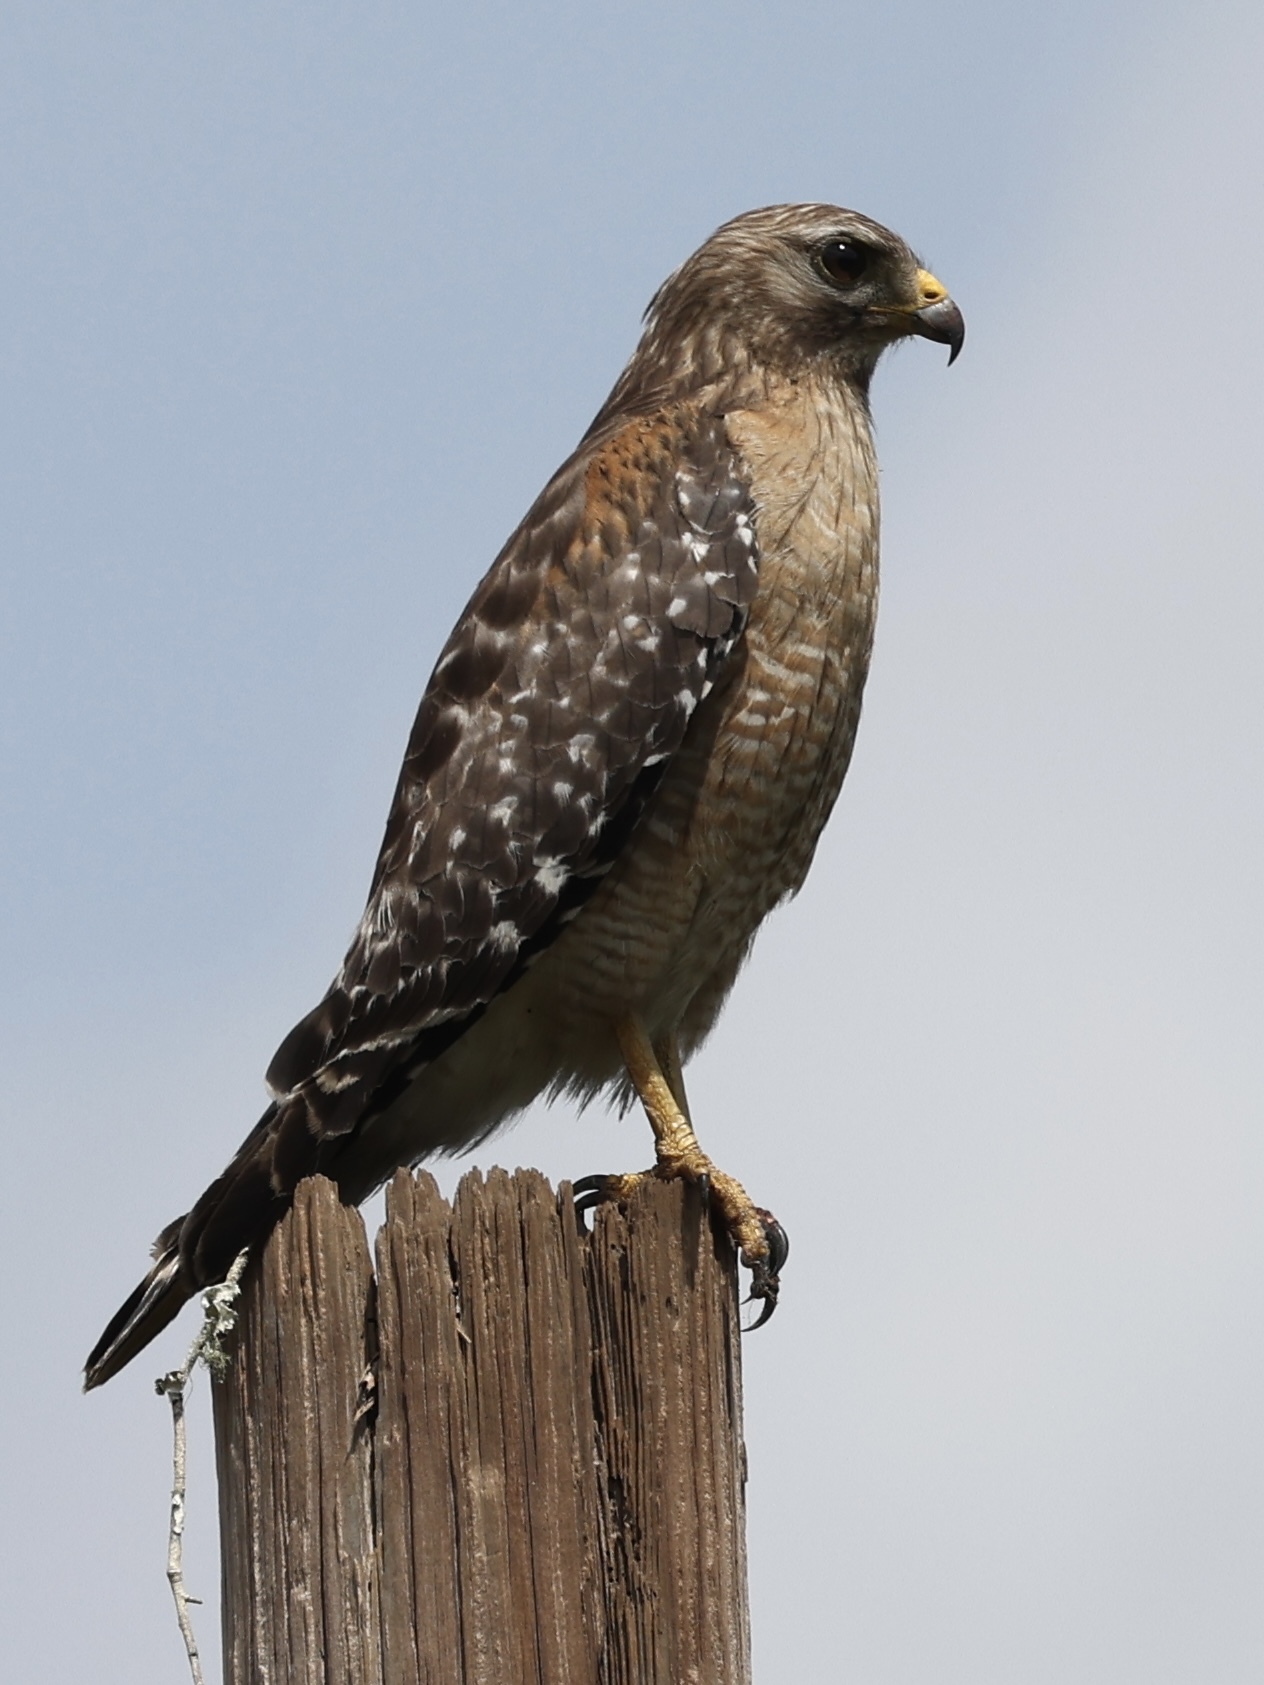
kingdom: Animalia
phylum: Chordata
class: Aves
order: Accipitriformes
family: Accipitridae
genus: Buteo
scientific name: Buteo lineatus
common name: Red-shouldered hawk
